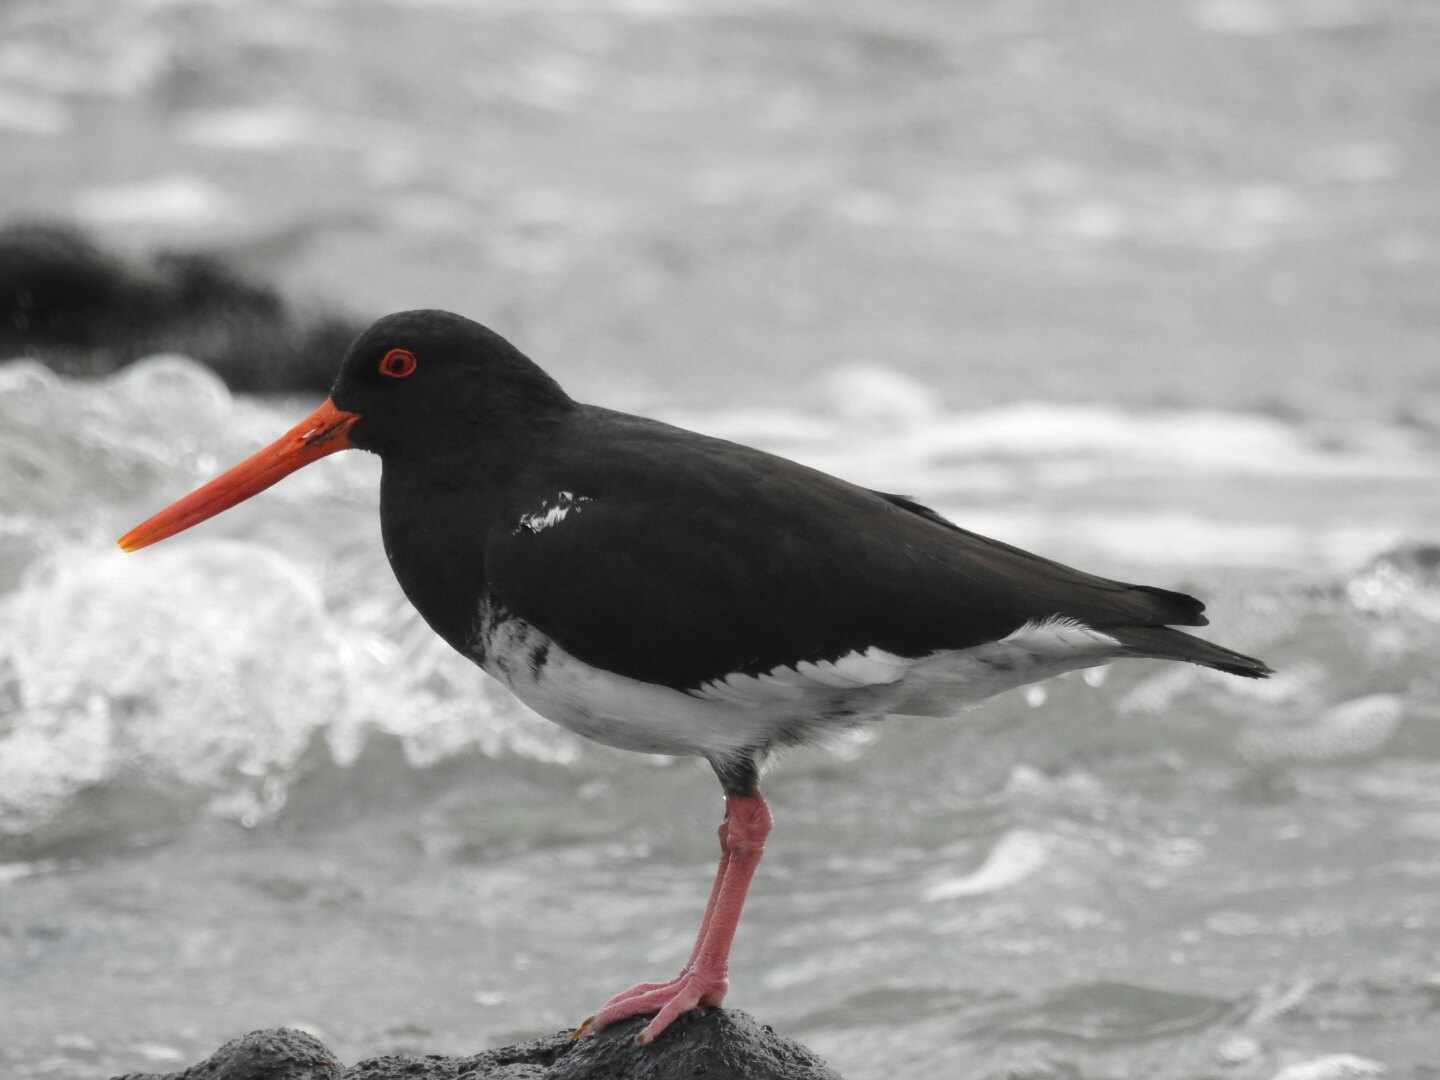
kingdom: Animalia
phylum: Chordata
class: Aves
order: Charadriiformes
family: Haematopodidae
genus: Haematopus
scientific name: Haematopus unicolor
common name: Variable oystercatcher
